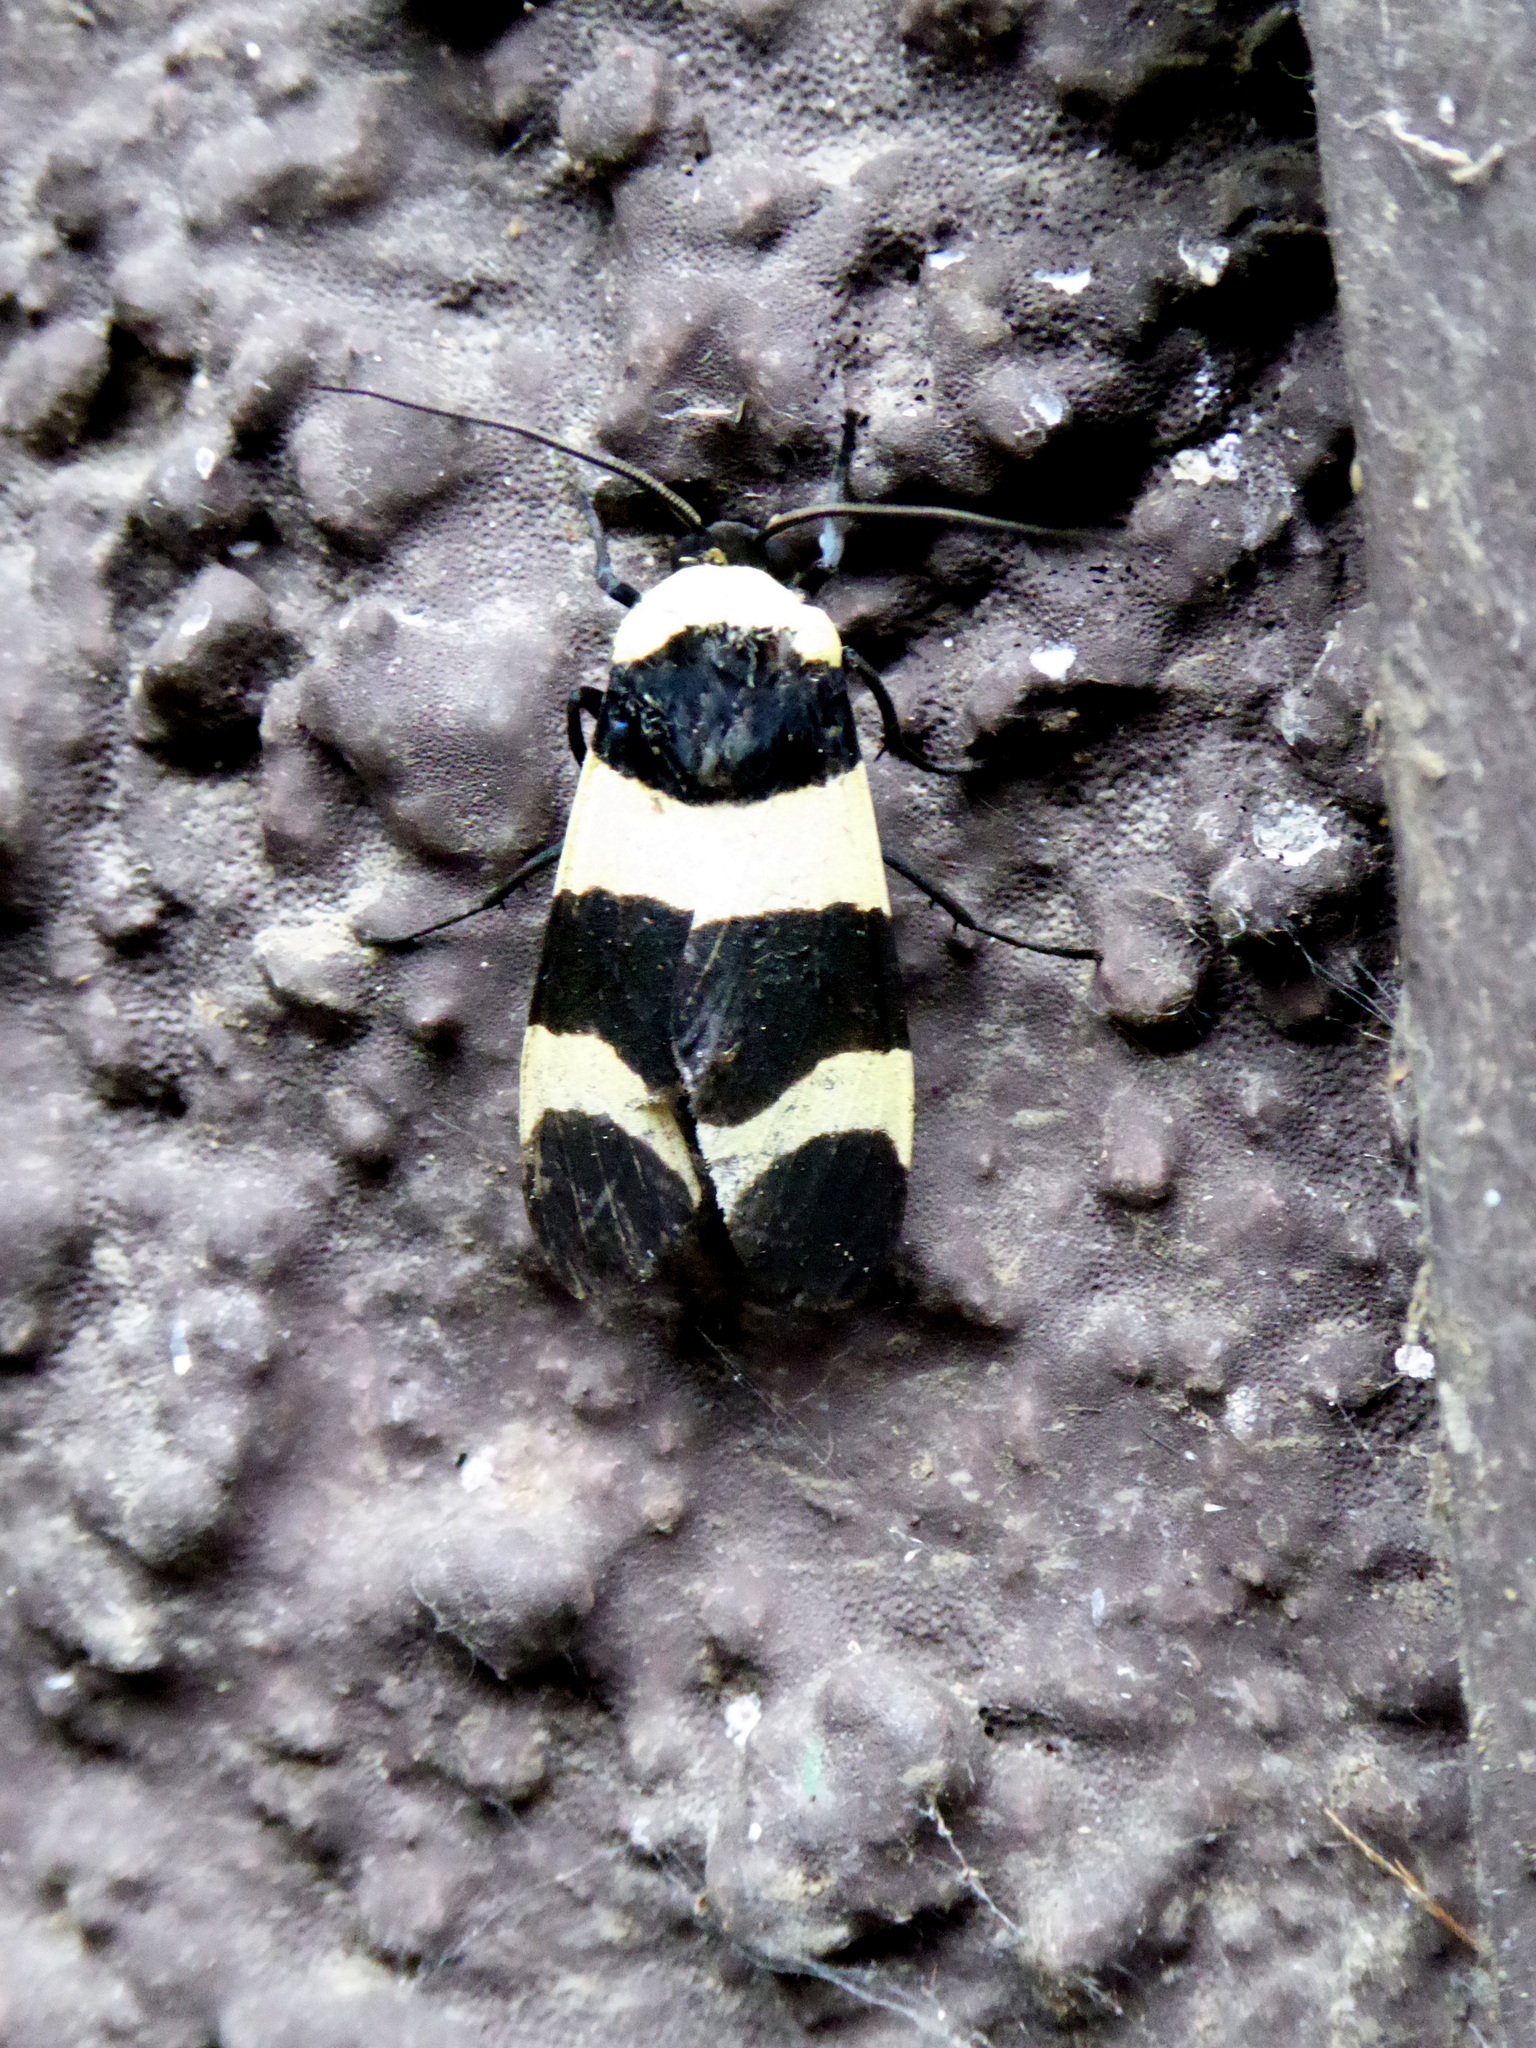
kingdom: Animalia
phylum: Arthropoda
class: Insecta
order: Lepidoptera
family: Erebidae
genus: Viviennea
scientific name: Viviennea tegyra
